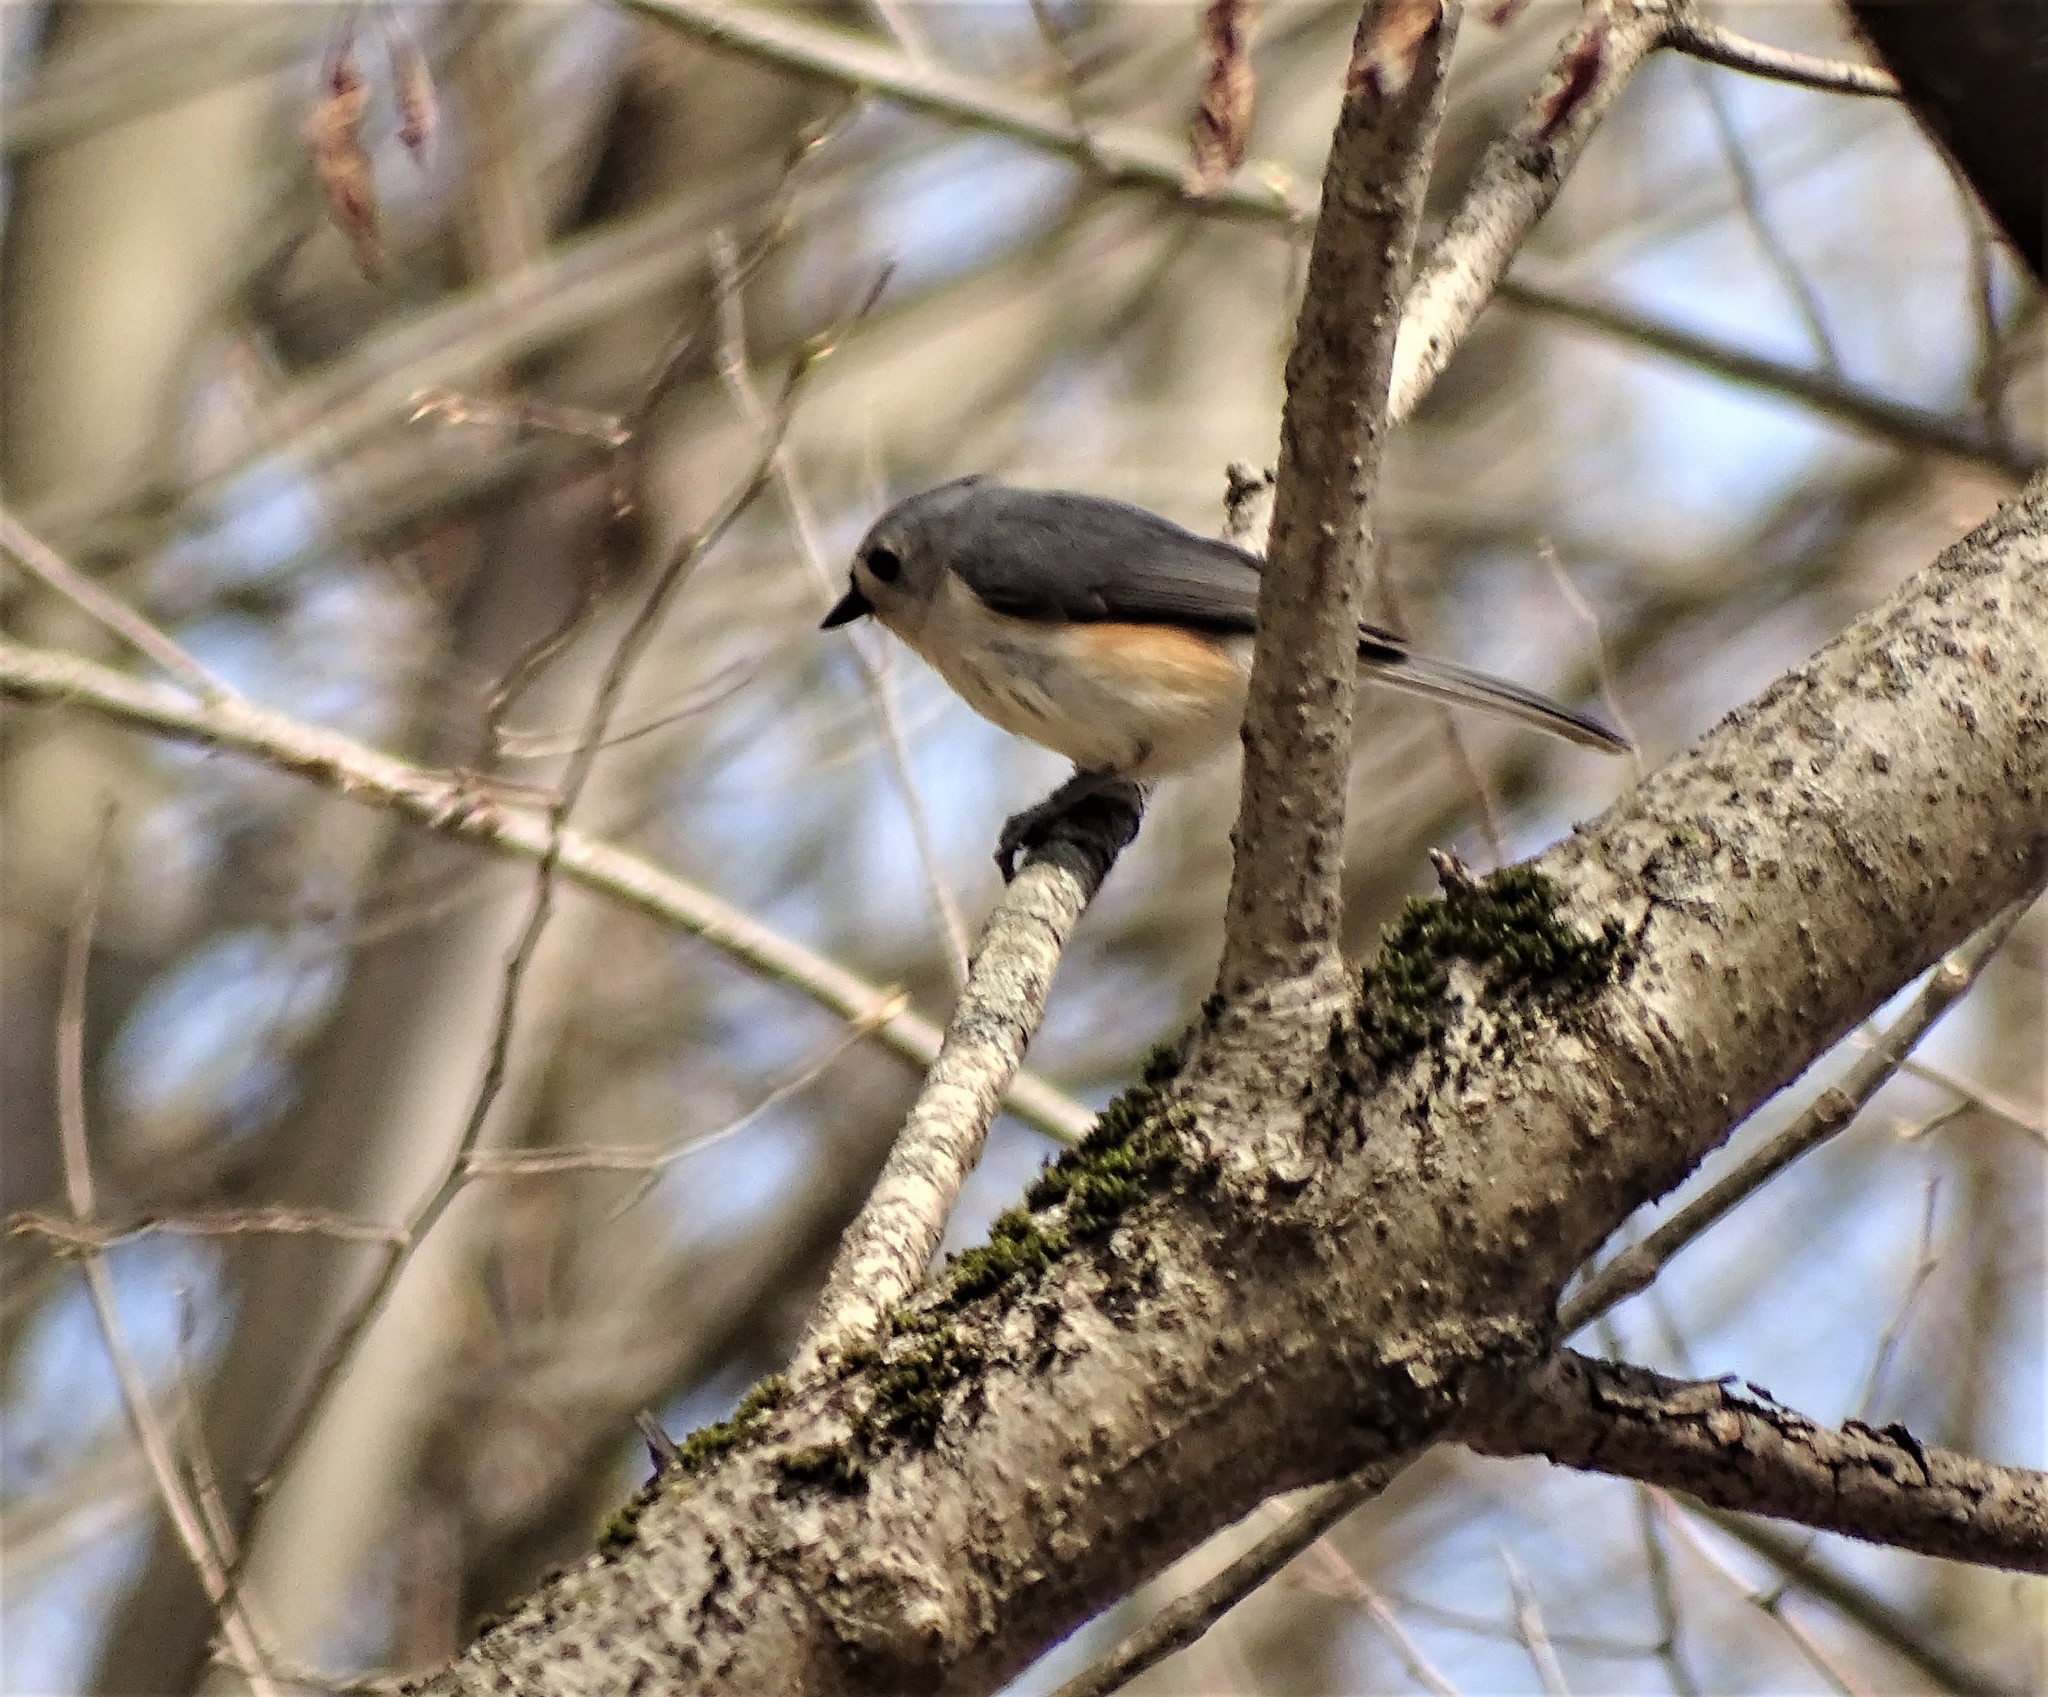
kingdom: Animalia
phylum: Chordata
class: Aves
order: Passeriformes
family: Paridae
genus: Baeolophus
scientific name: Baeolophus bicolor
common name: Tufted titmouse
